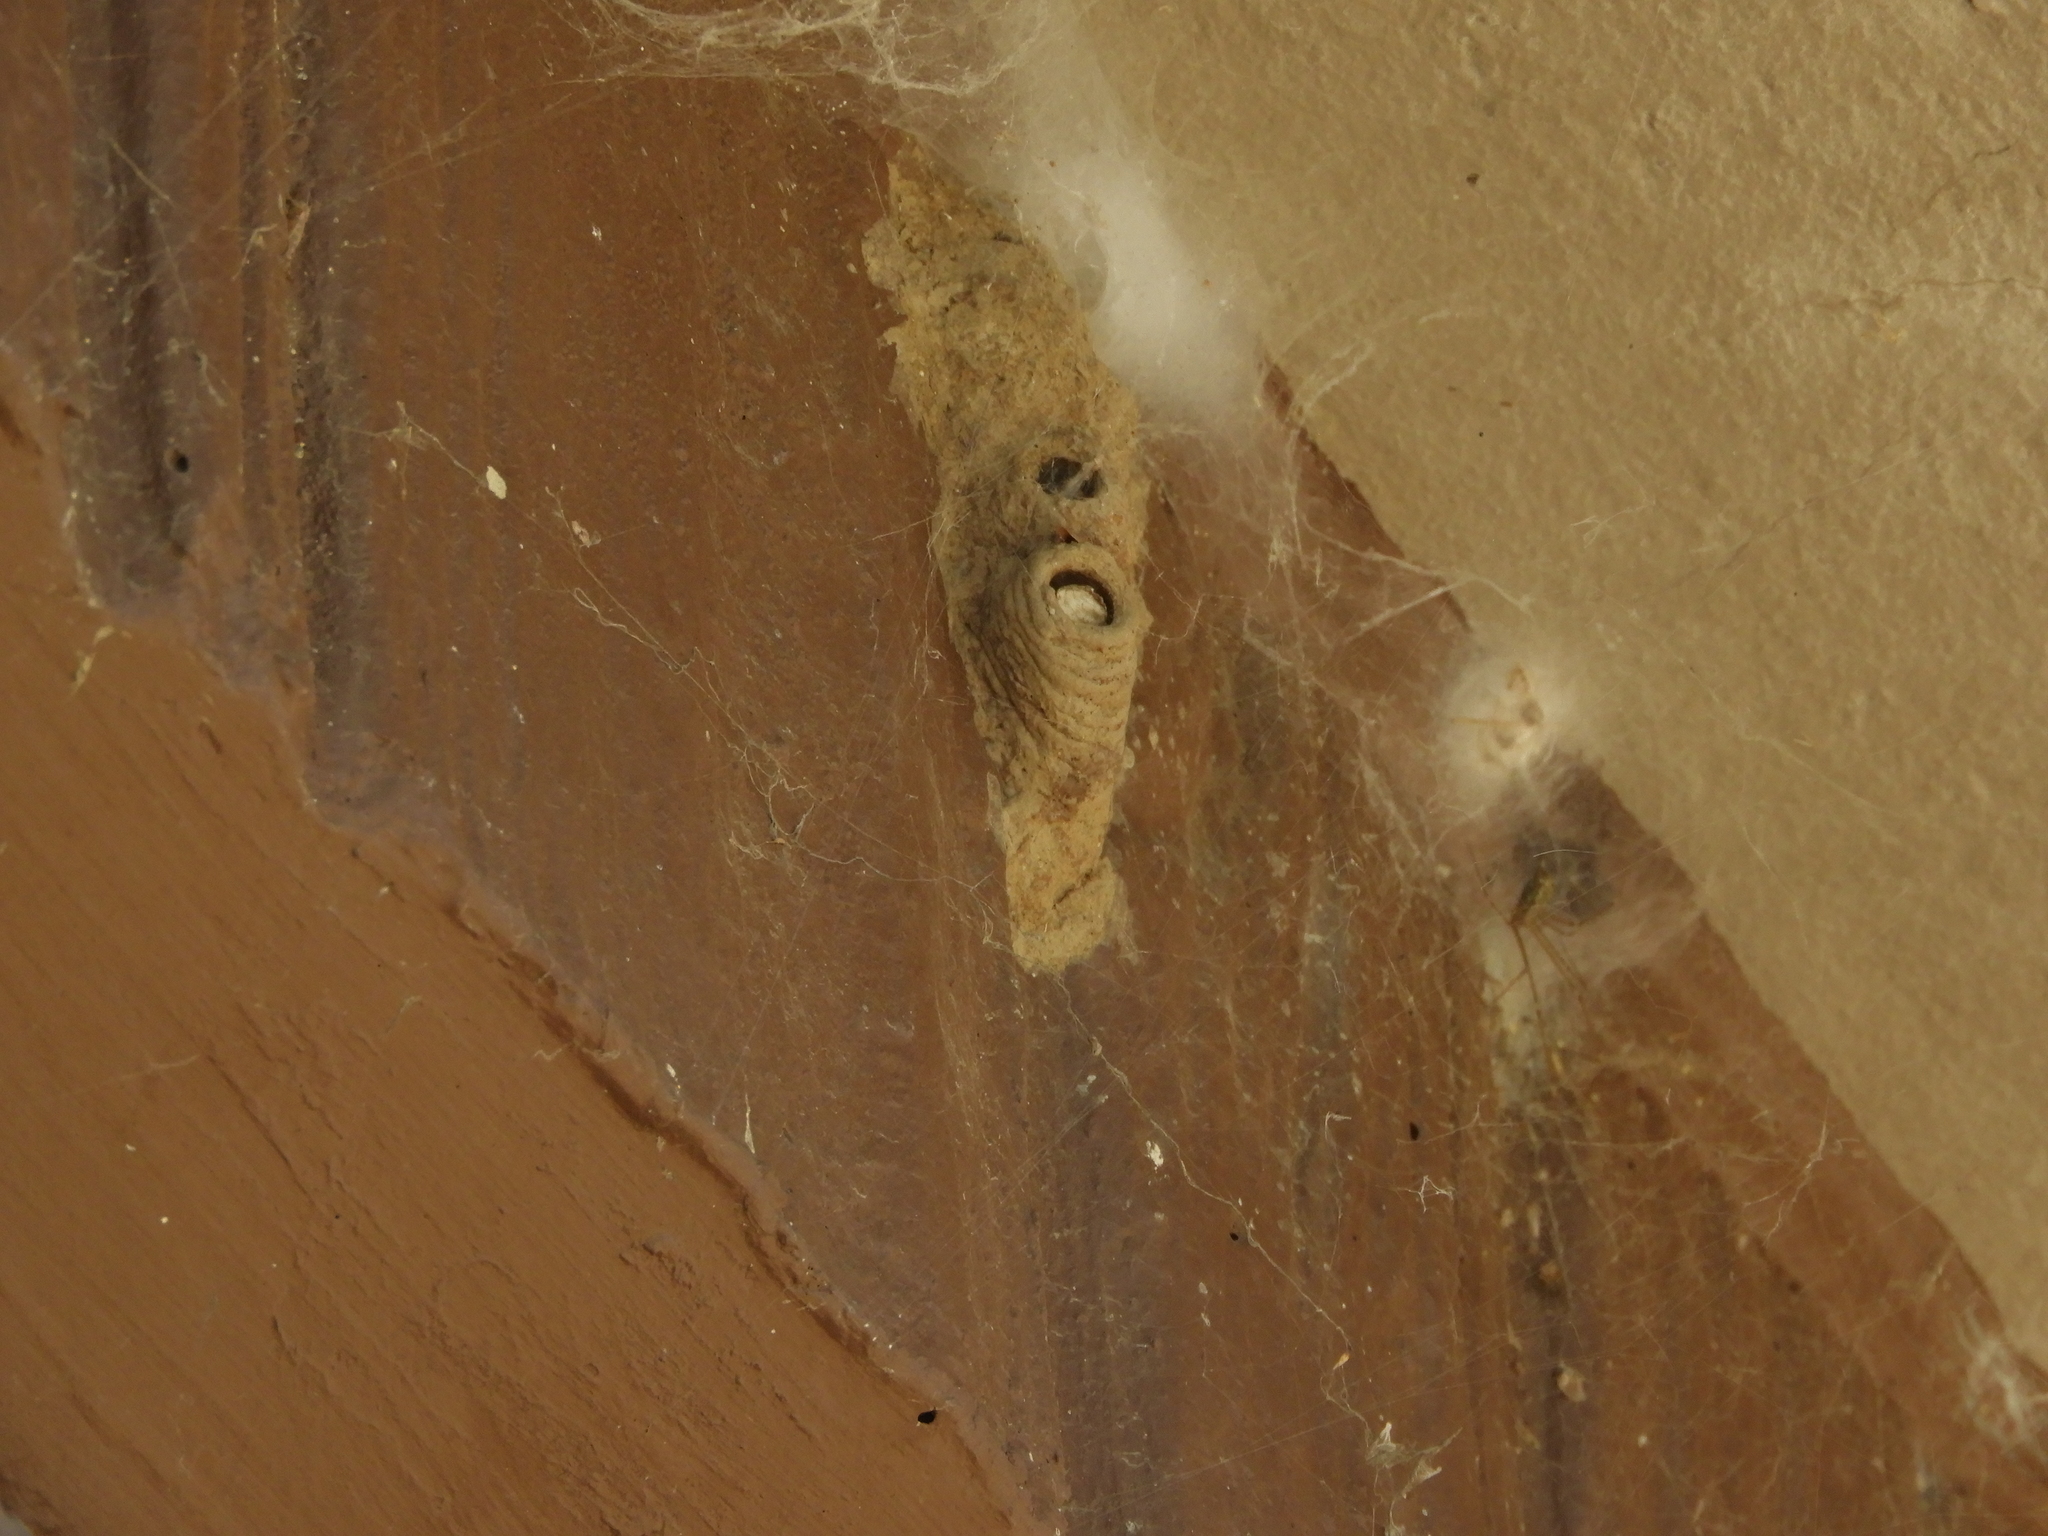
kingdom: Animalia
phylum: Arthropoda
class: Insecta
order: Hymenoptera
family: Sphecidae
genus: Sceliphron
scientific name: Sceliphron caementarium
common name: Mud dauber
